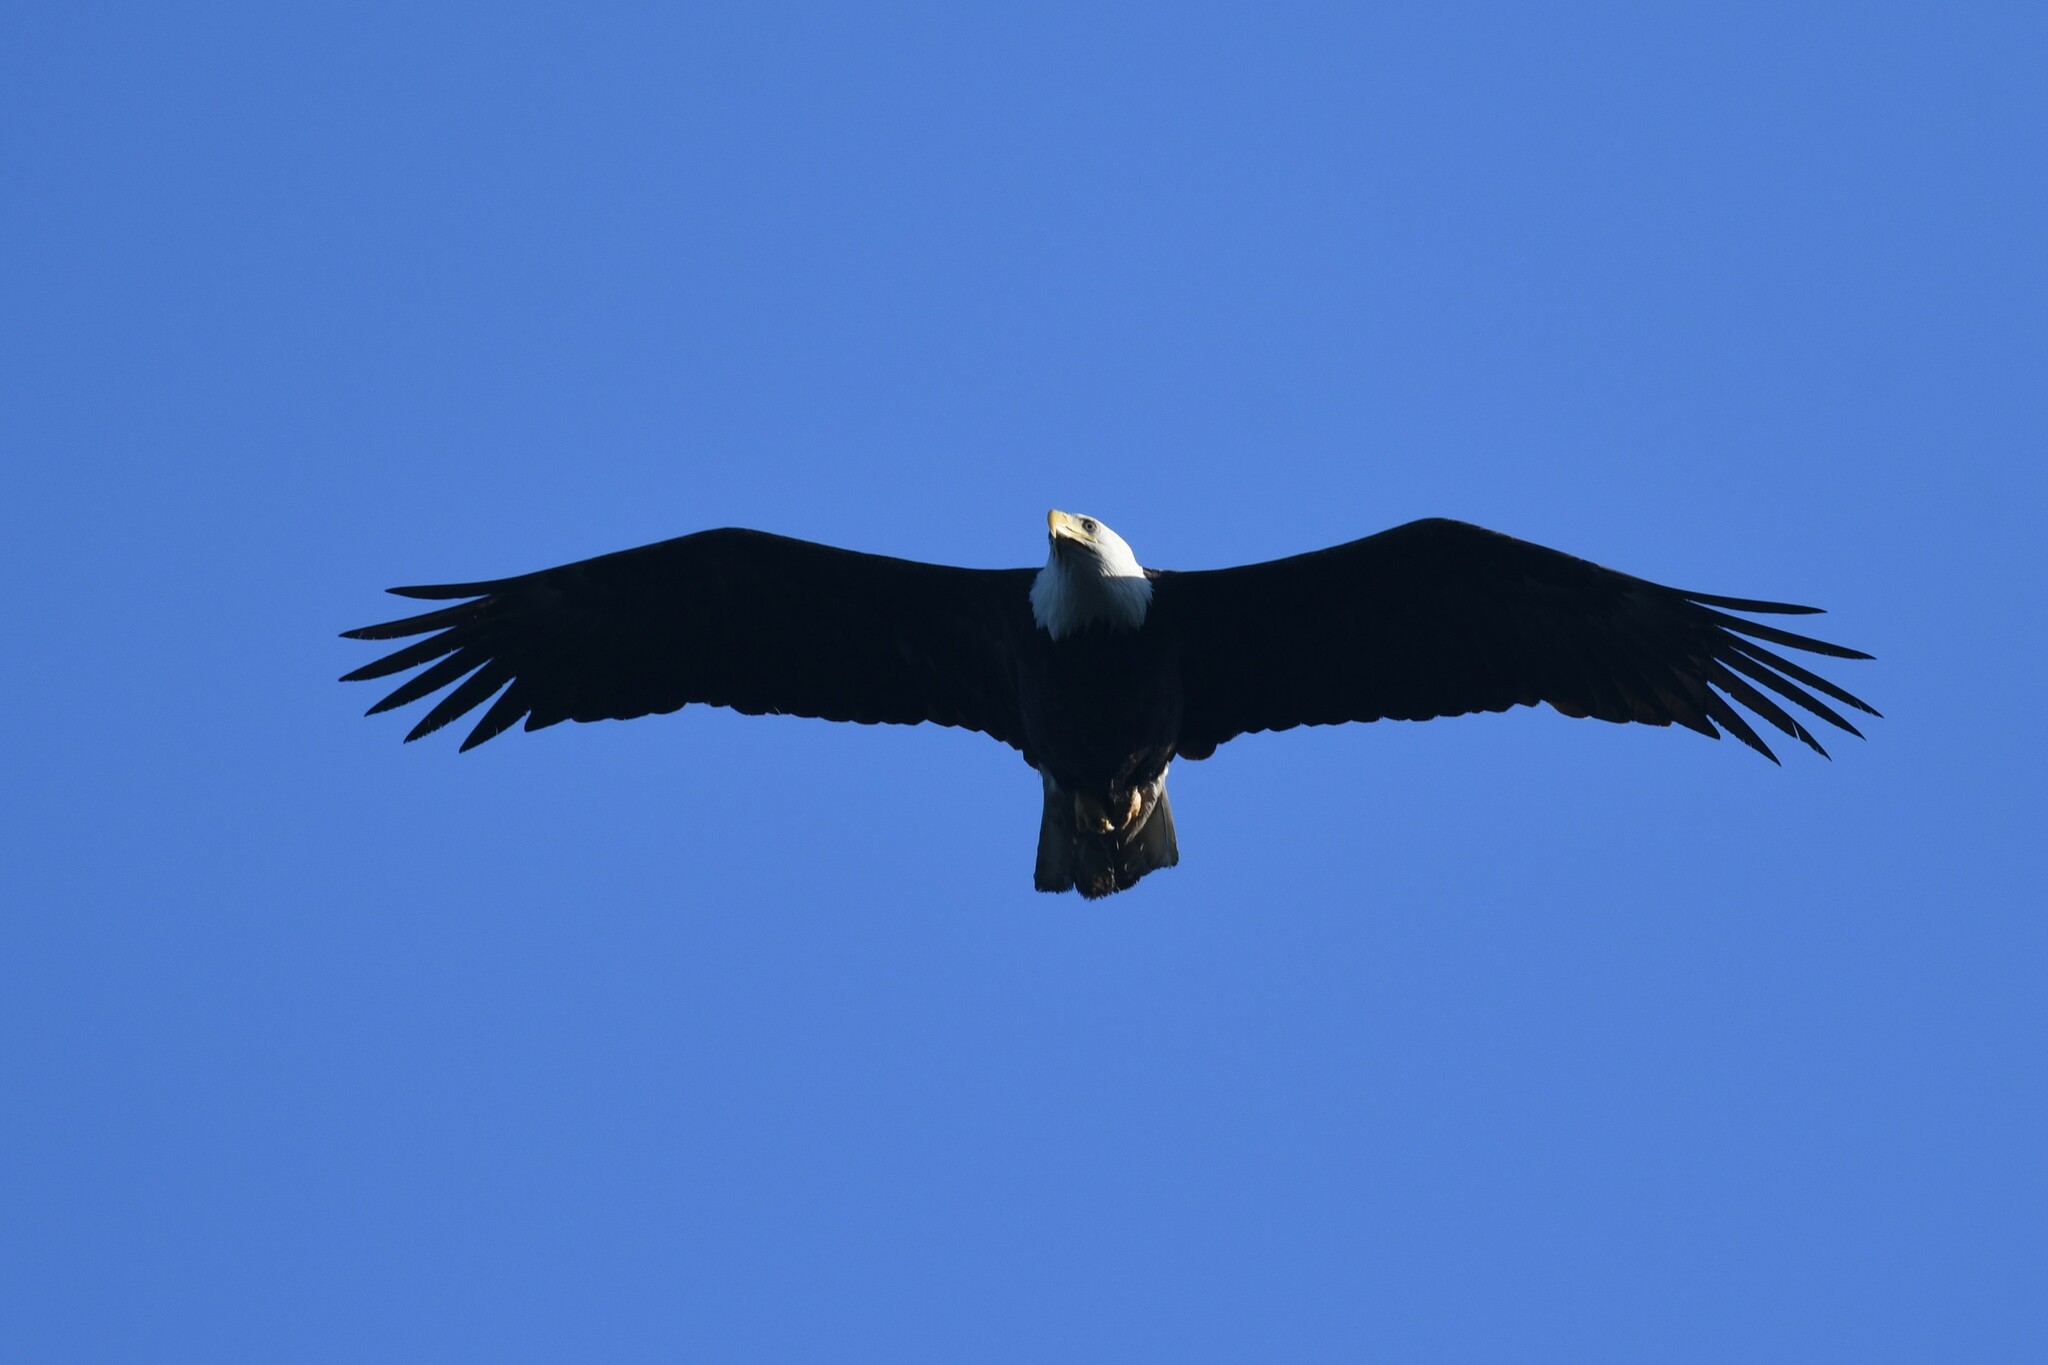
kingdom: Animalia
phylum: Chordata
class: Aves
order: Accipitriformes
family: Accipitridae
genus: Haliaeetus
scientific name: Haliaeetus leucocephalus
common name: Bald eagle
